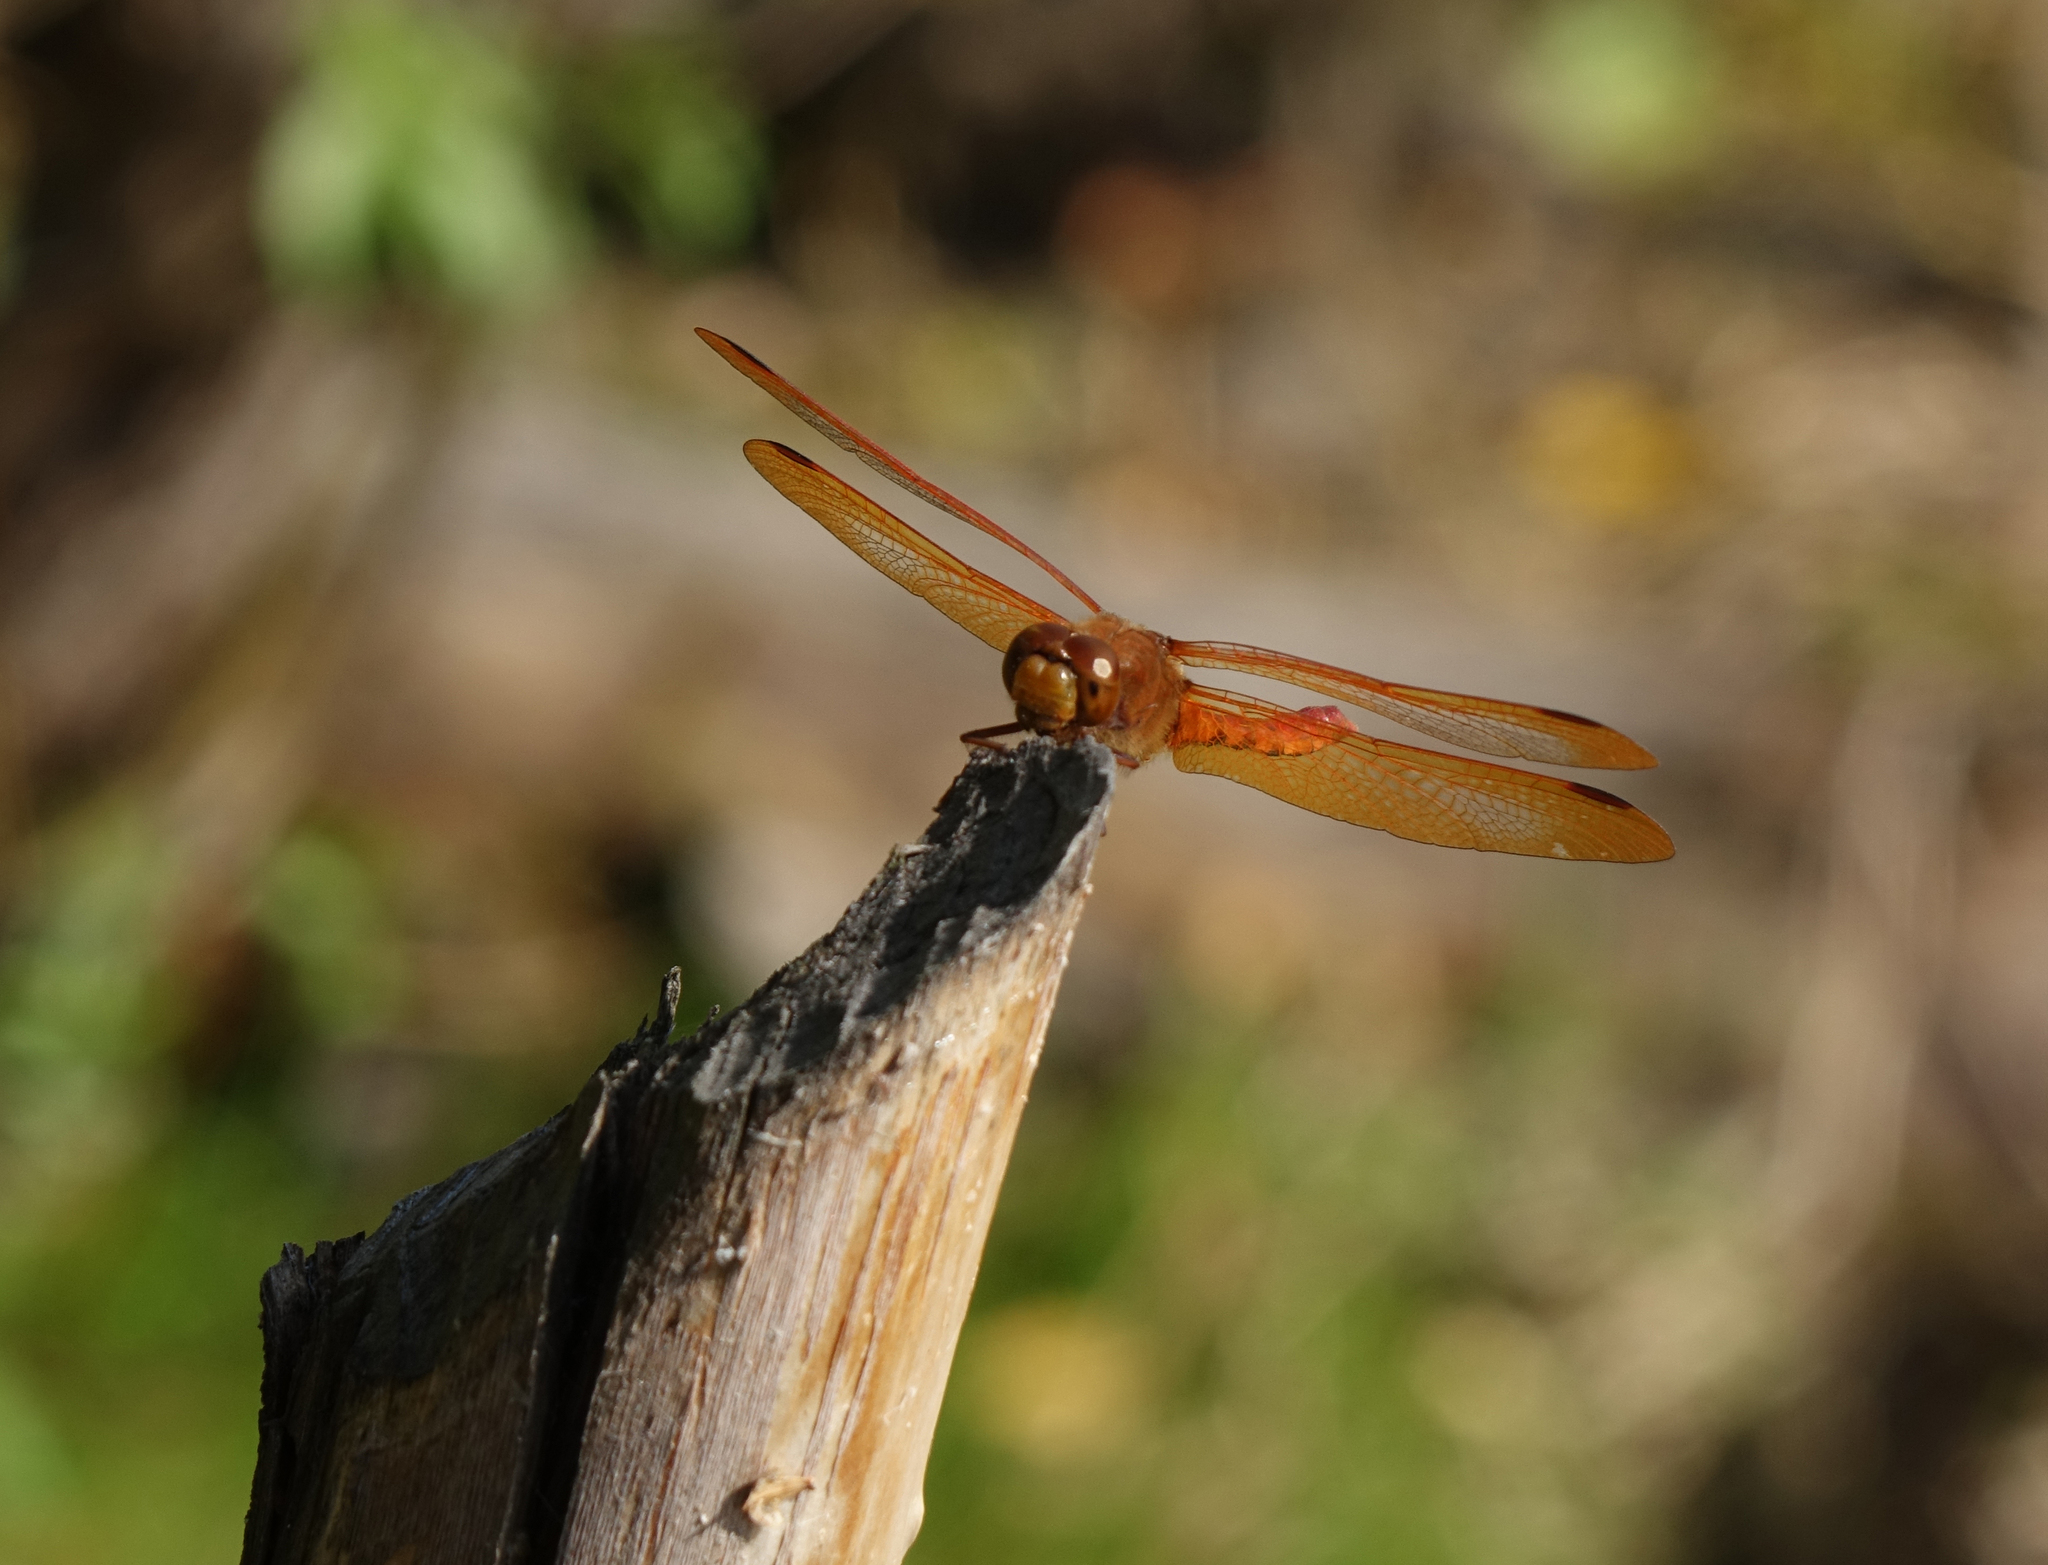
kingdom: Animalia
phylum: Arthropoda
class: Insecta
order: Odonata
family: Libellulidae
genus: Sympetrum
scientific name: Sympetrum croceolum
